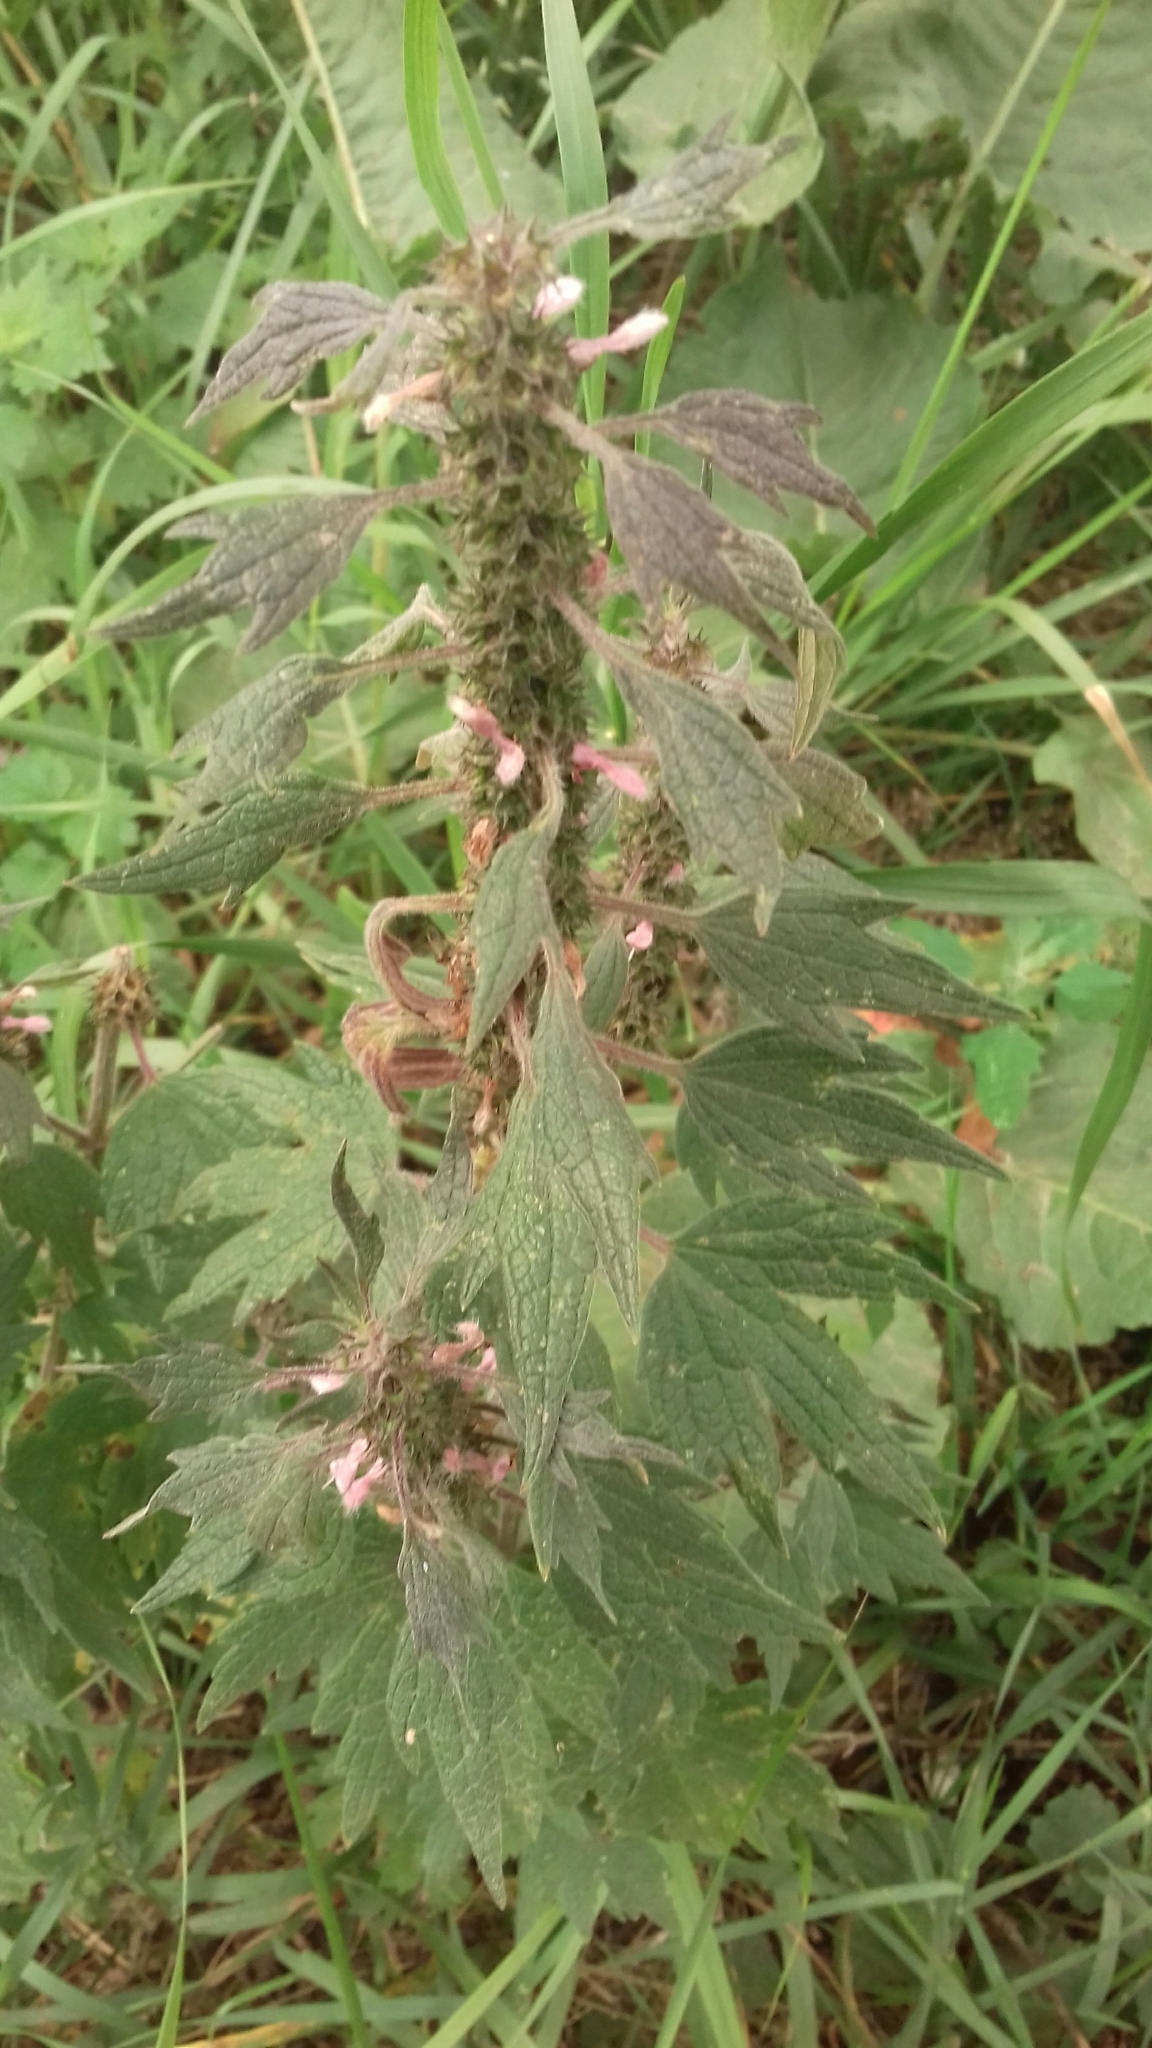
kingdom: Plantae
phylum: Tracheophyta
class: Magnoliopsida
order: Lamiales
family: Lamiaceae
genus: Leonurus
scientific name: Leonurus quinquelobatus
